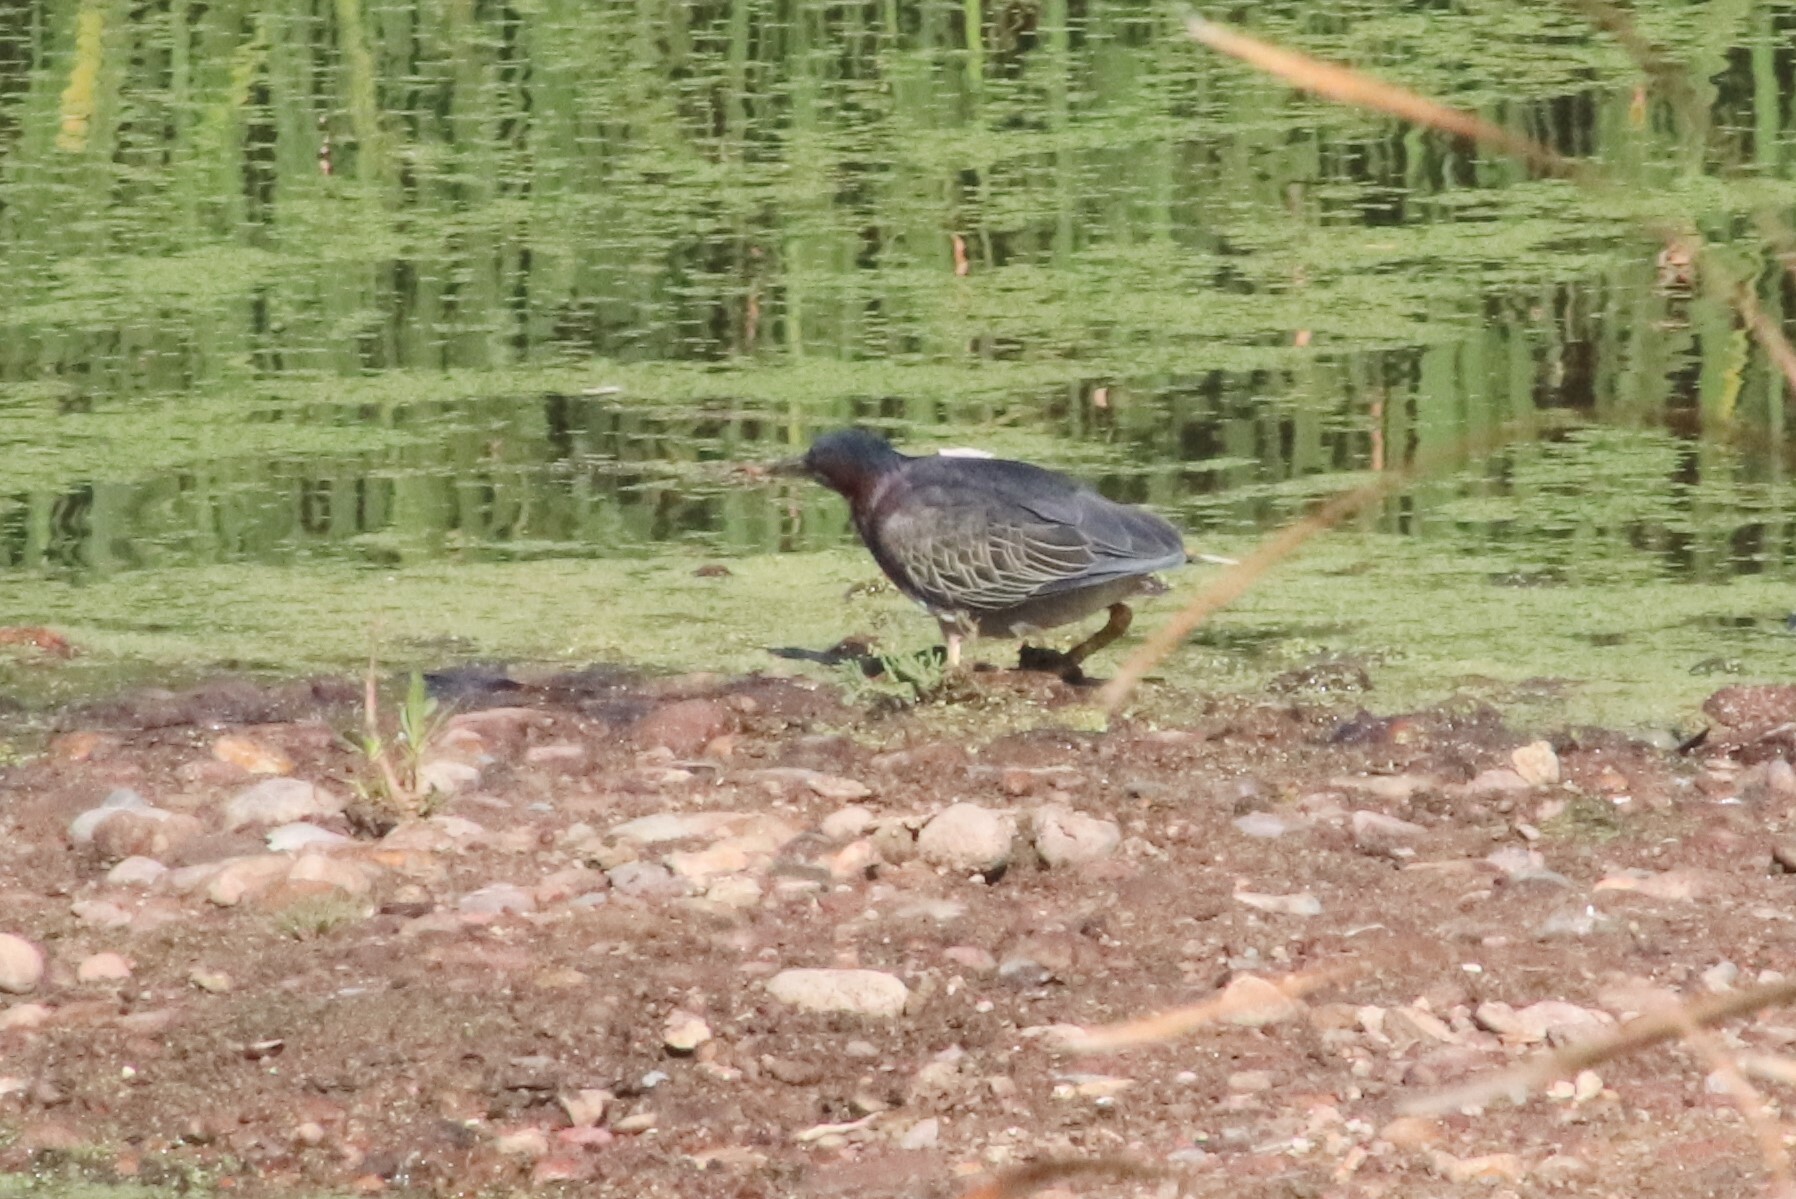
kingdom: Animalia
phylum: Chordata
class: Aves
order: Pelecaniformes
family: Ardeidae
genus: Butorides
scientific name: Butorides virescens
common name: Green heron
